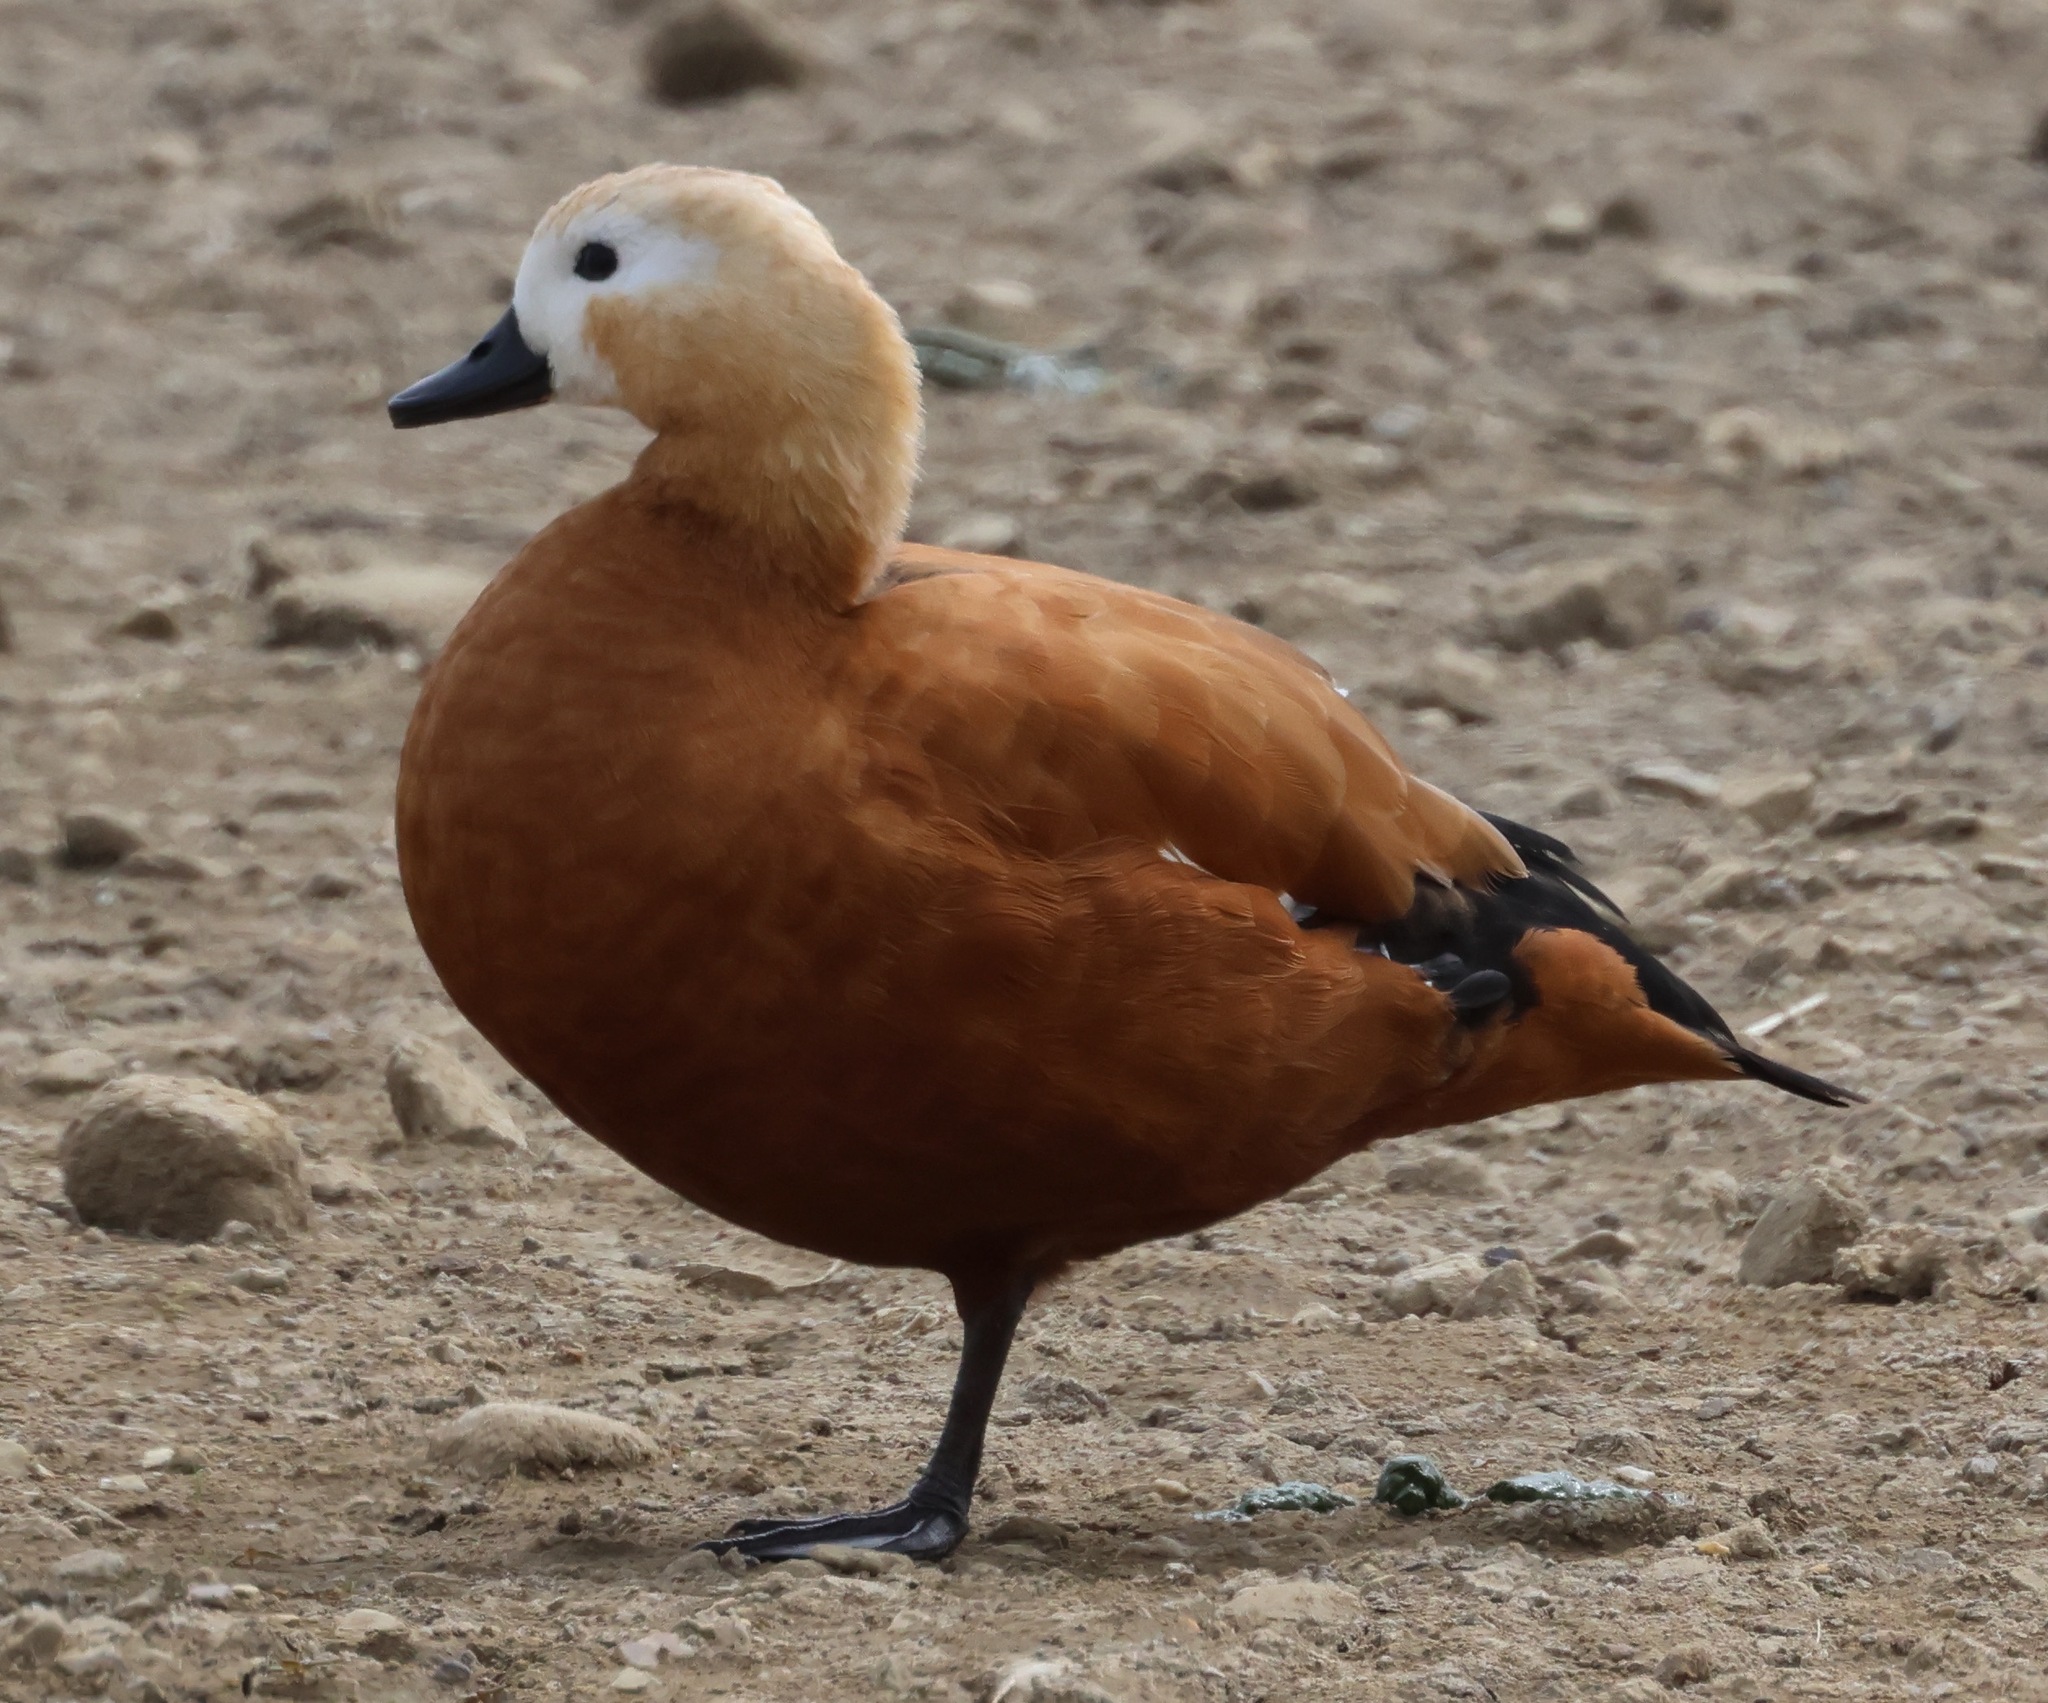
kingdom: Animalia
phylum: Chordata
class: Aves
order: Anseriformes
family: Anatidae
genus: Tadorna
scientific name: Tadorna ferruginea
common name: Ruddy shelduck
